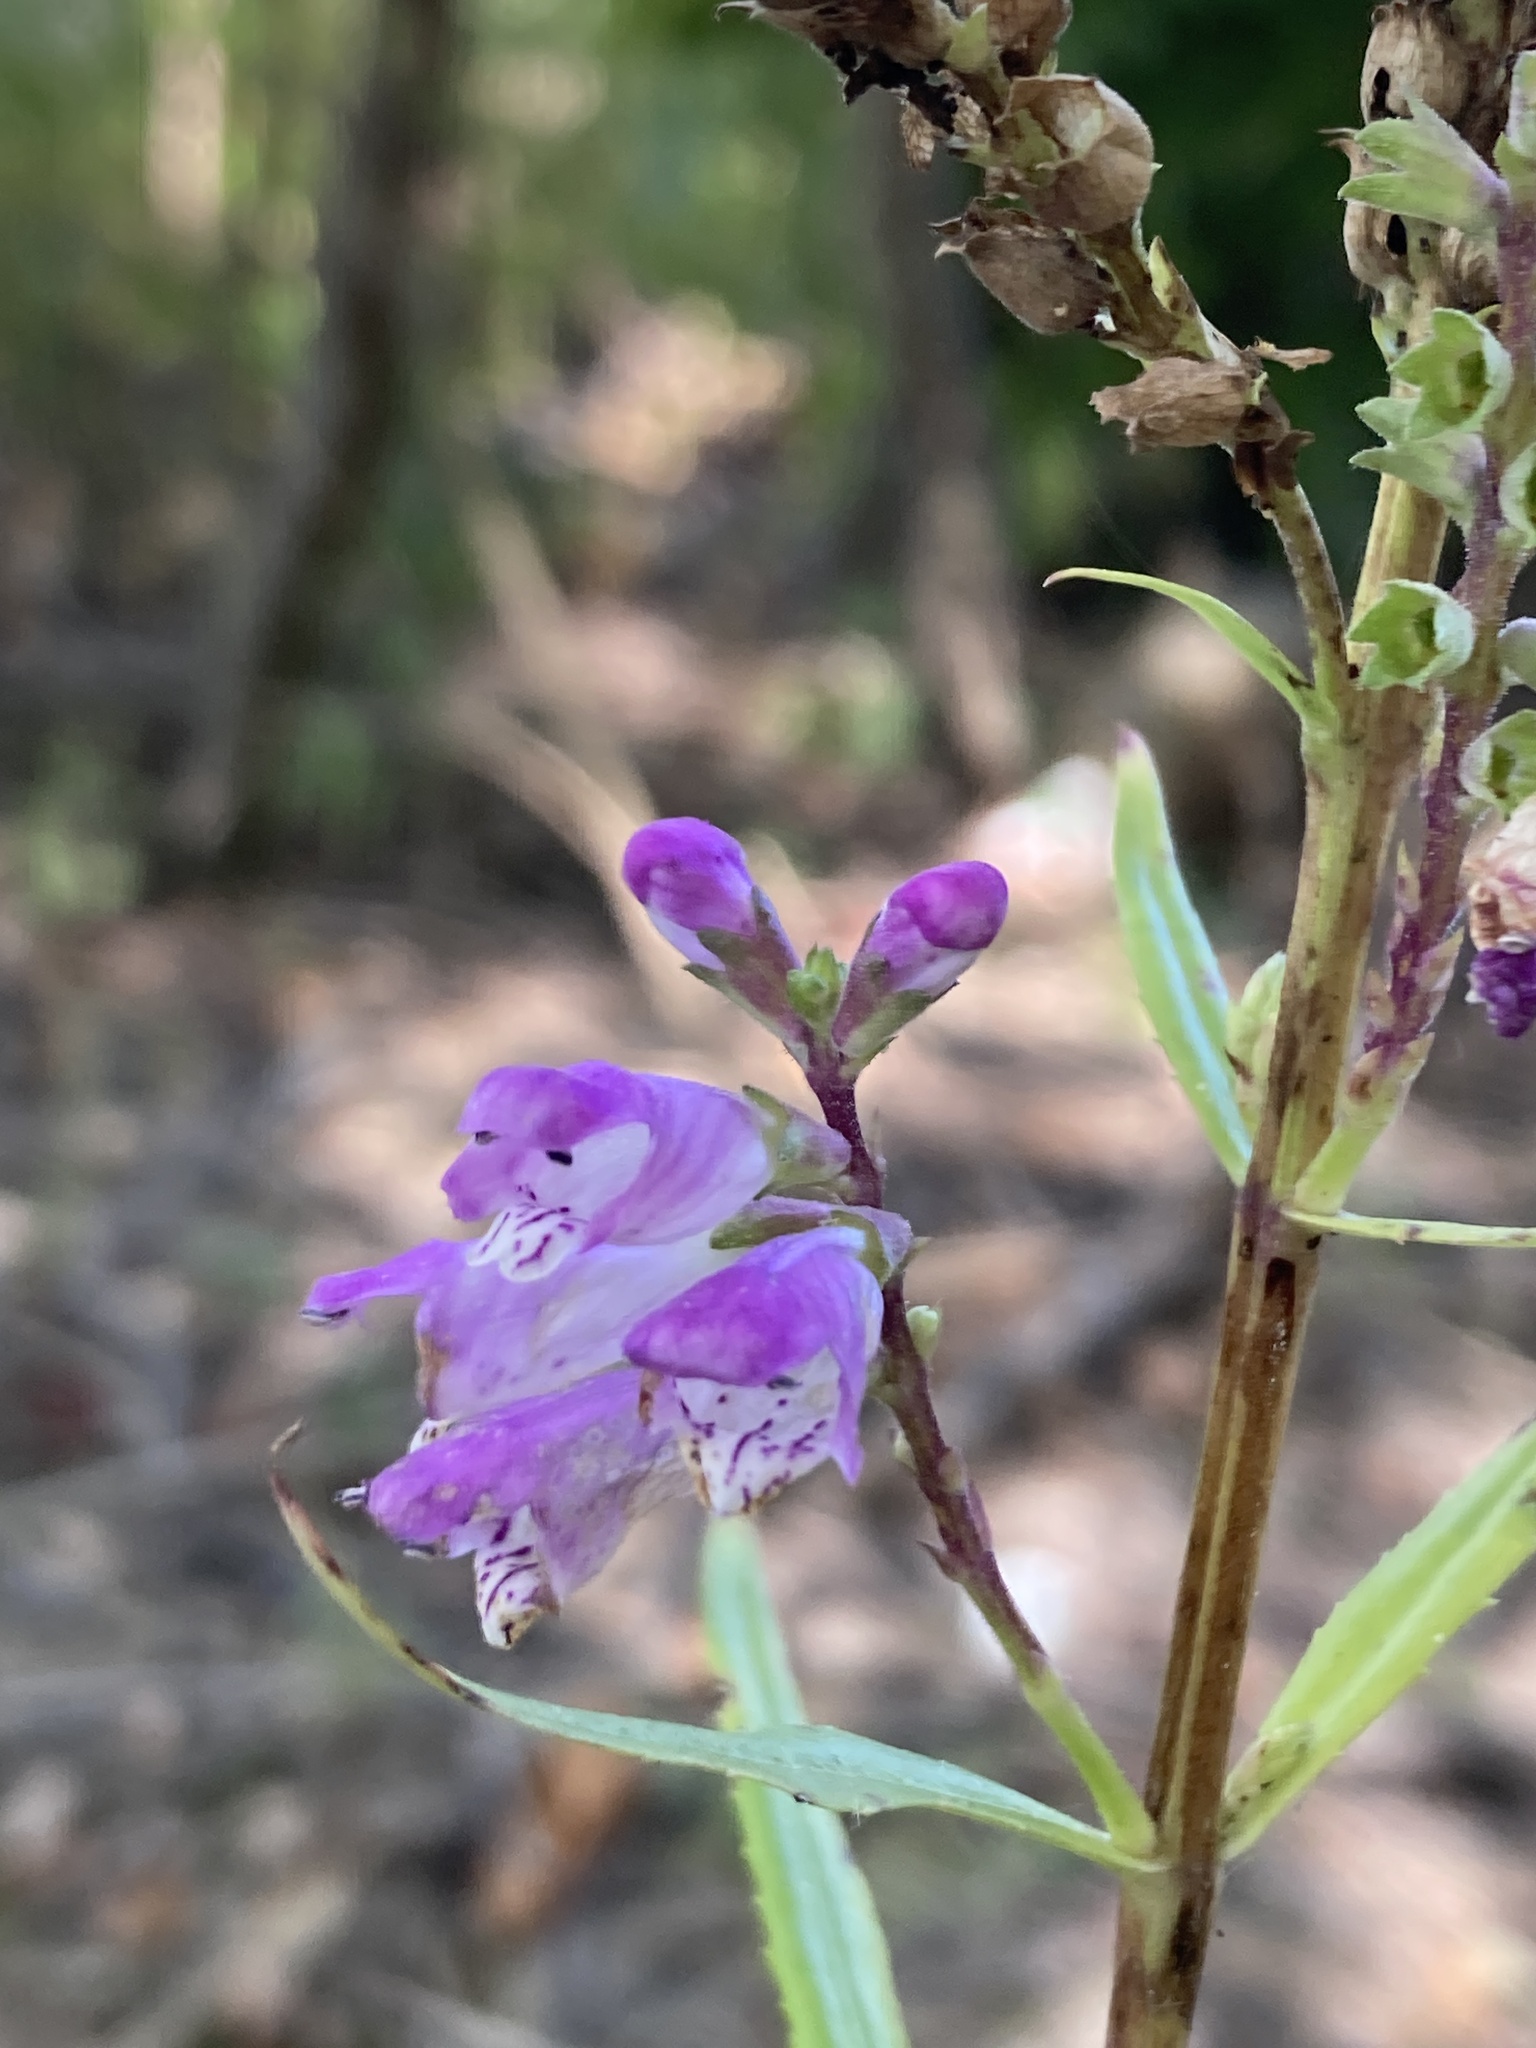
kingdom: Plantae
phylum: Tracheophyta
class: Magnoliopsida
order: Lamiales
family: Lamiaceae
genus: Physostegia
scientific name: Physostegia virginiana
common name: Obedient-plant
